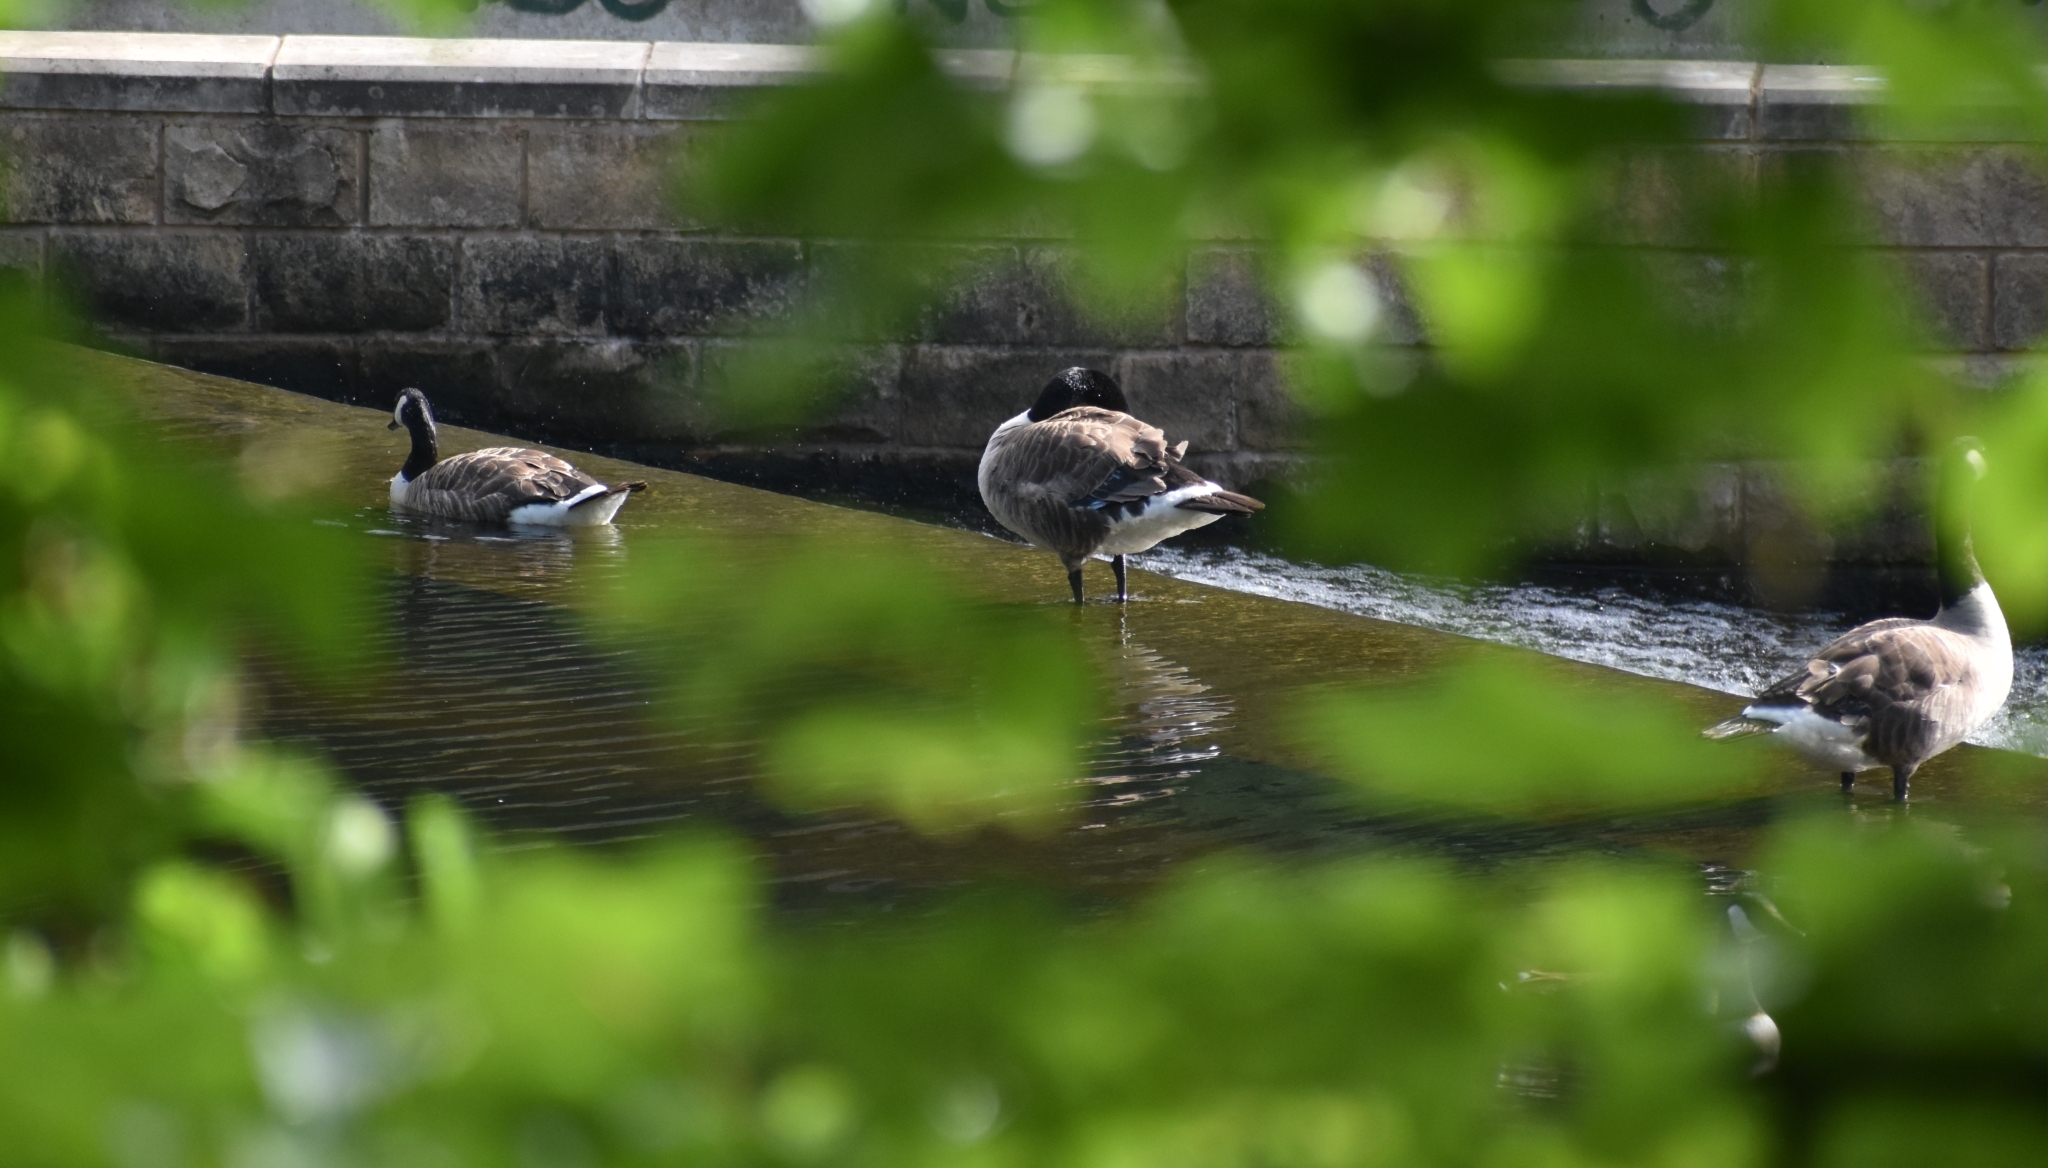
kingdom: Animalia
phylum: Chordata
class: Aves
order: Anseriformes
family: Anatidae
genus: Branta
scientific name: Branta canadensis
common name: Canada goose
